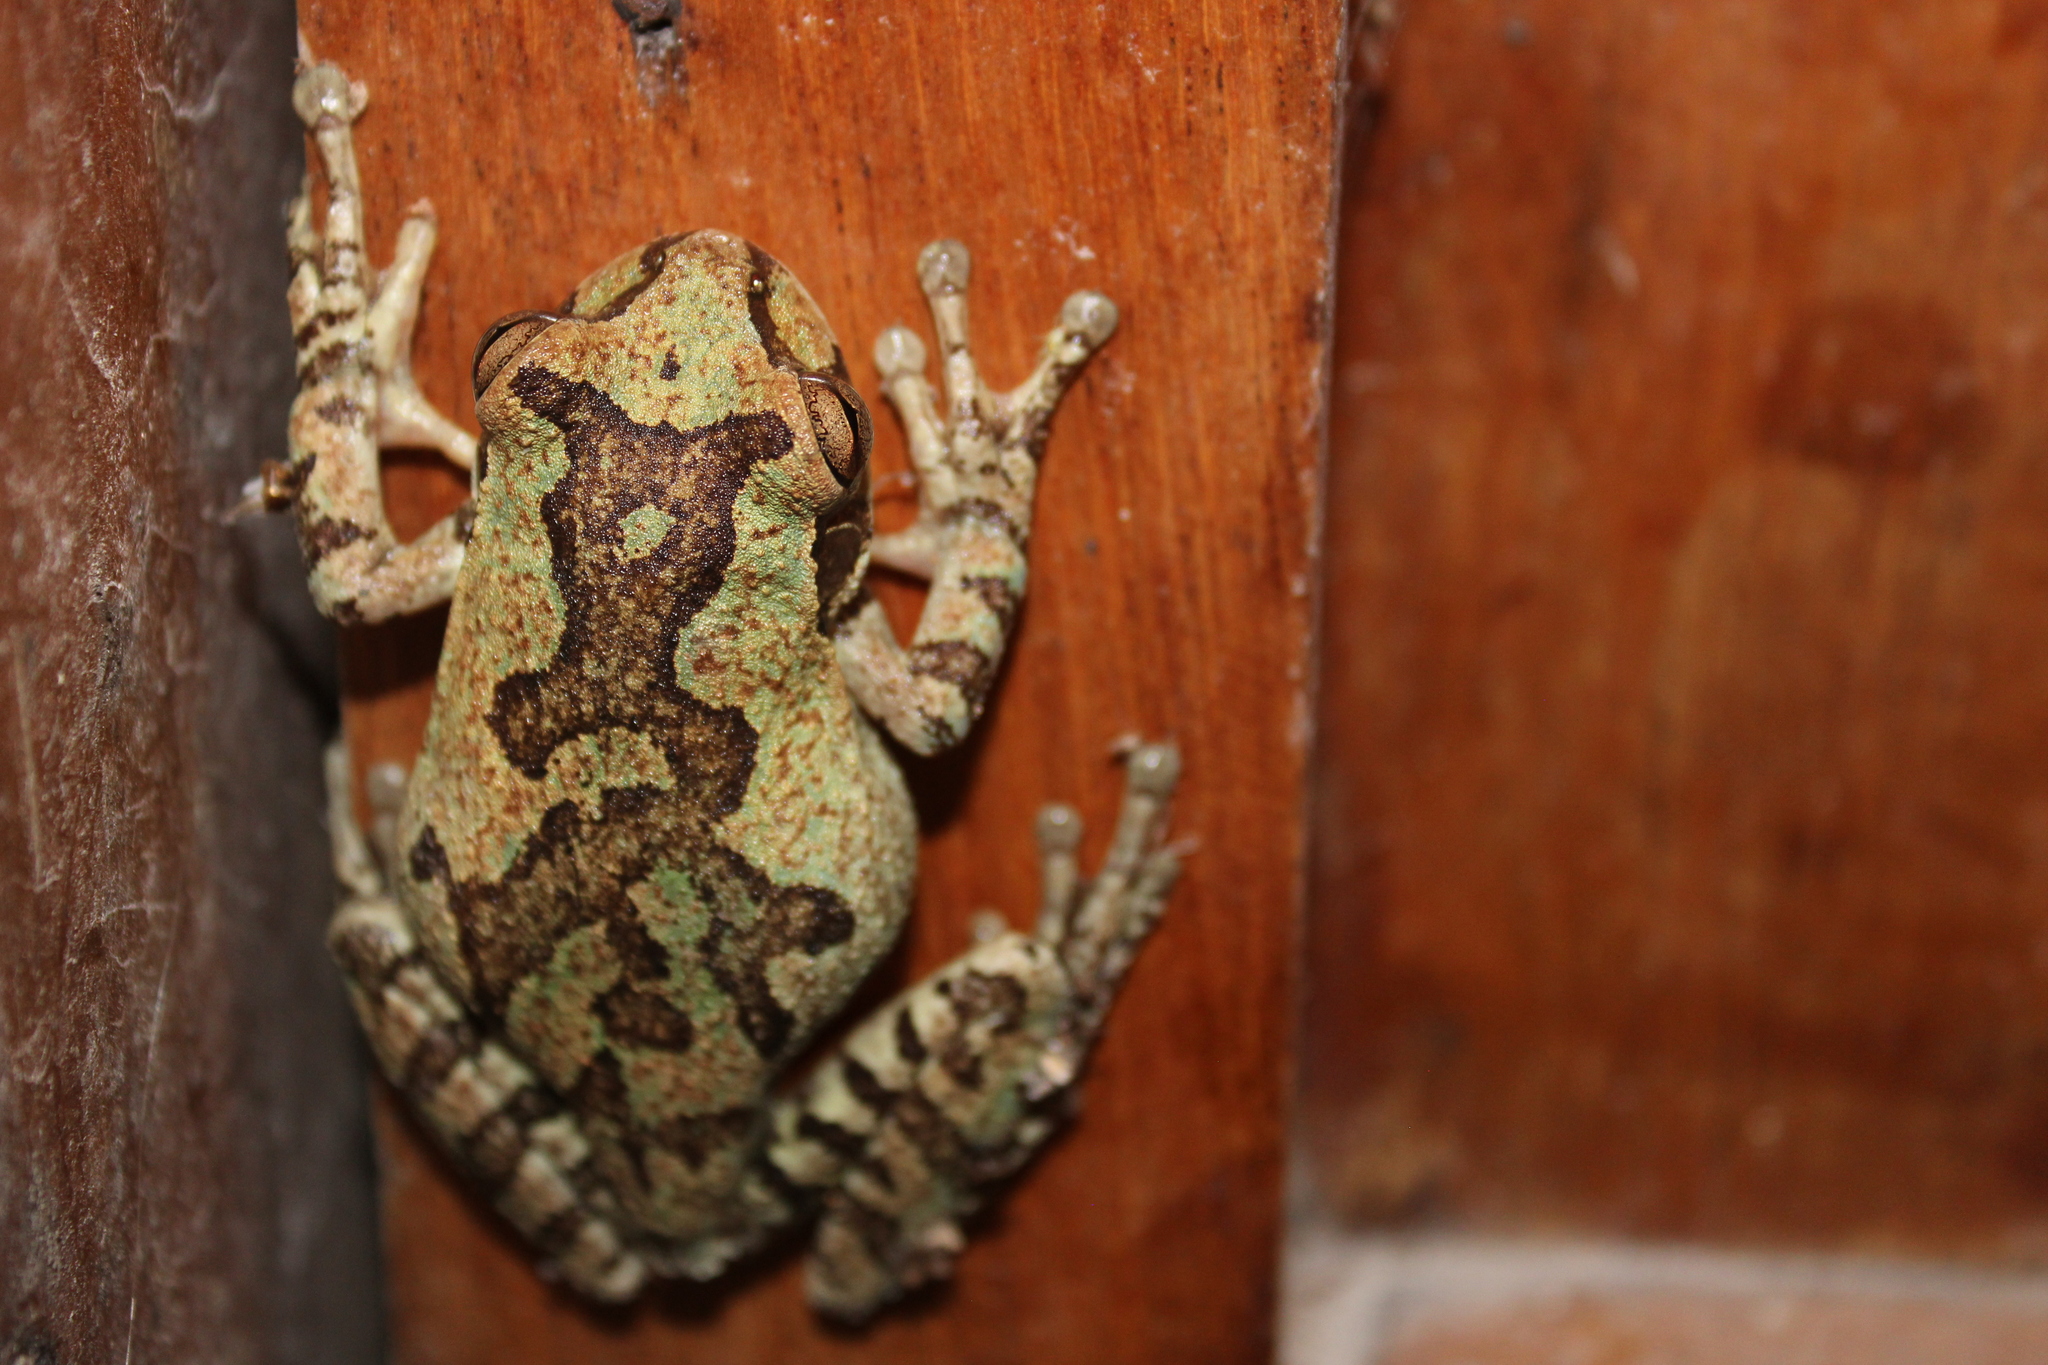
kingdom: Animalia
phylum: Chordata
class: Amphibia
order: Anura
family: Hylidae
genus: Smilisca
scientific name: Smilisca baudinii
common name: Mexican smilisca
